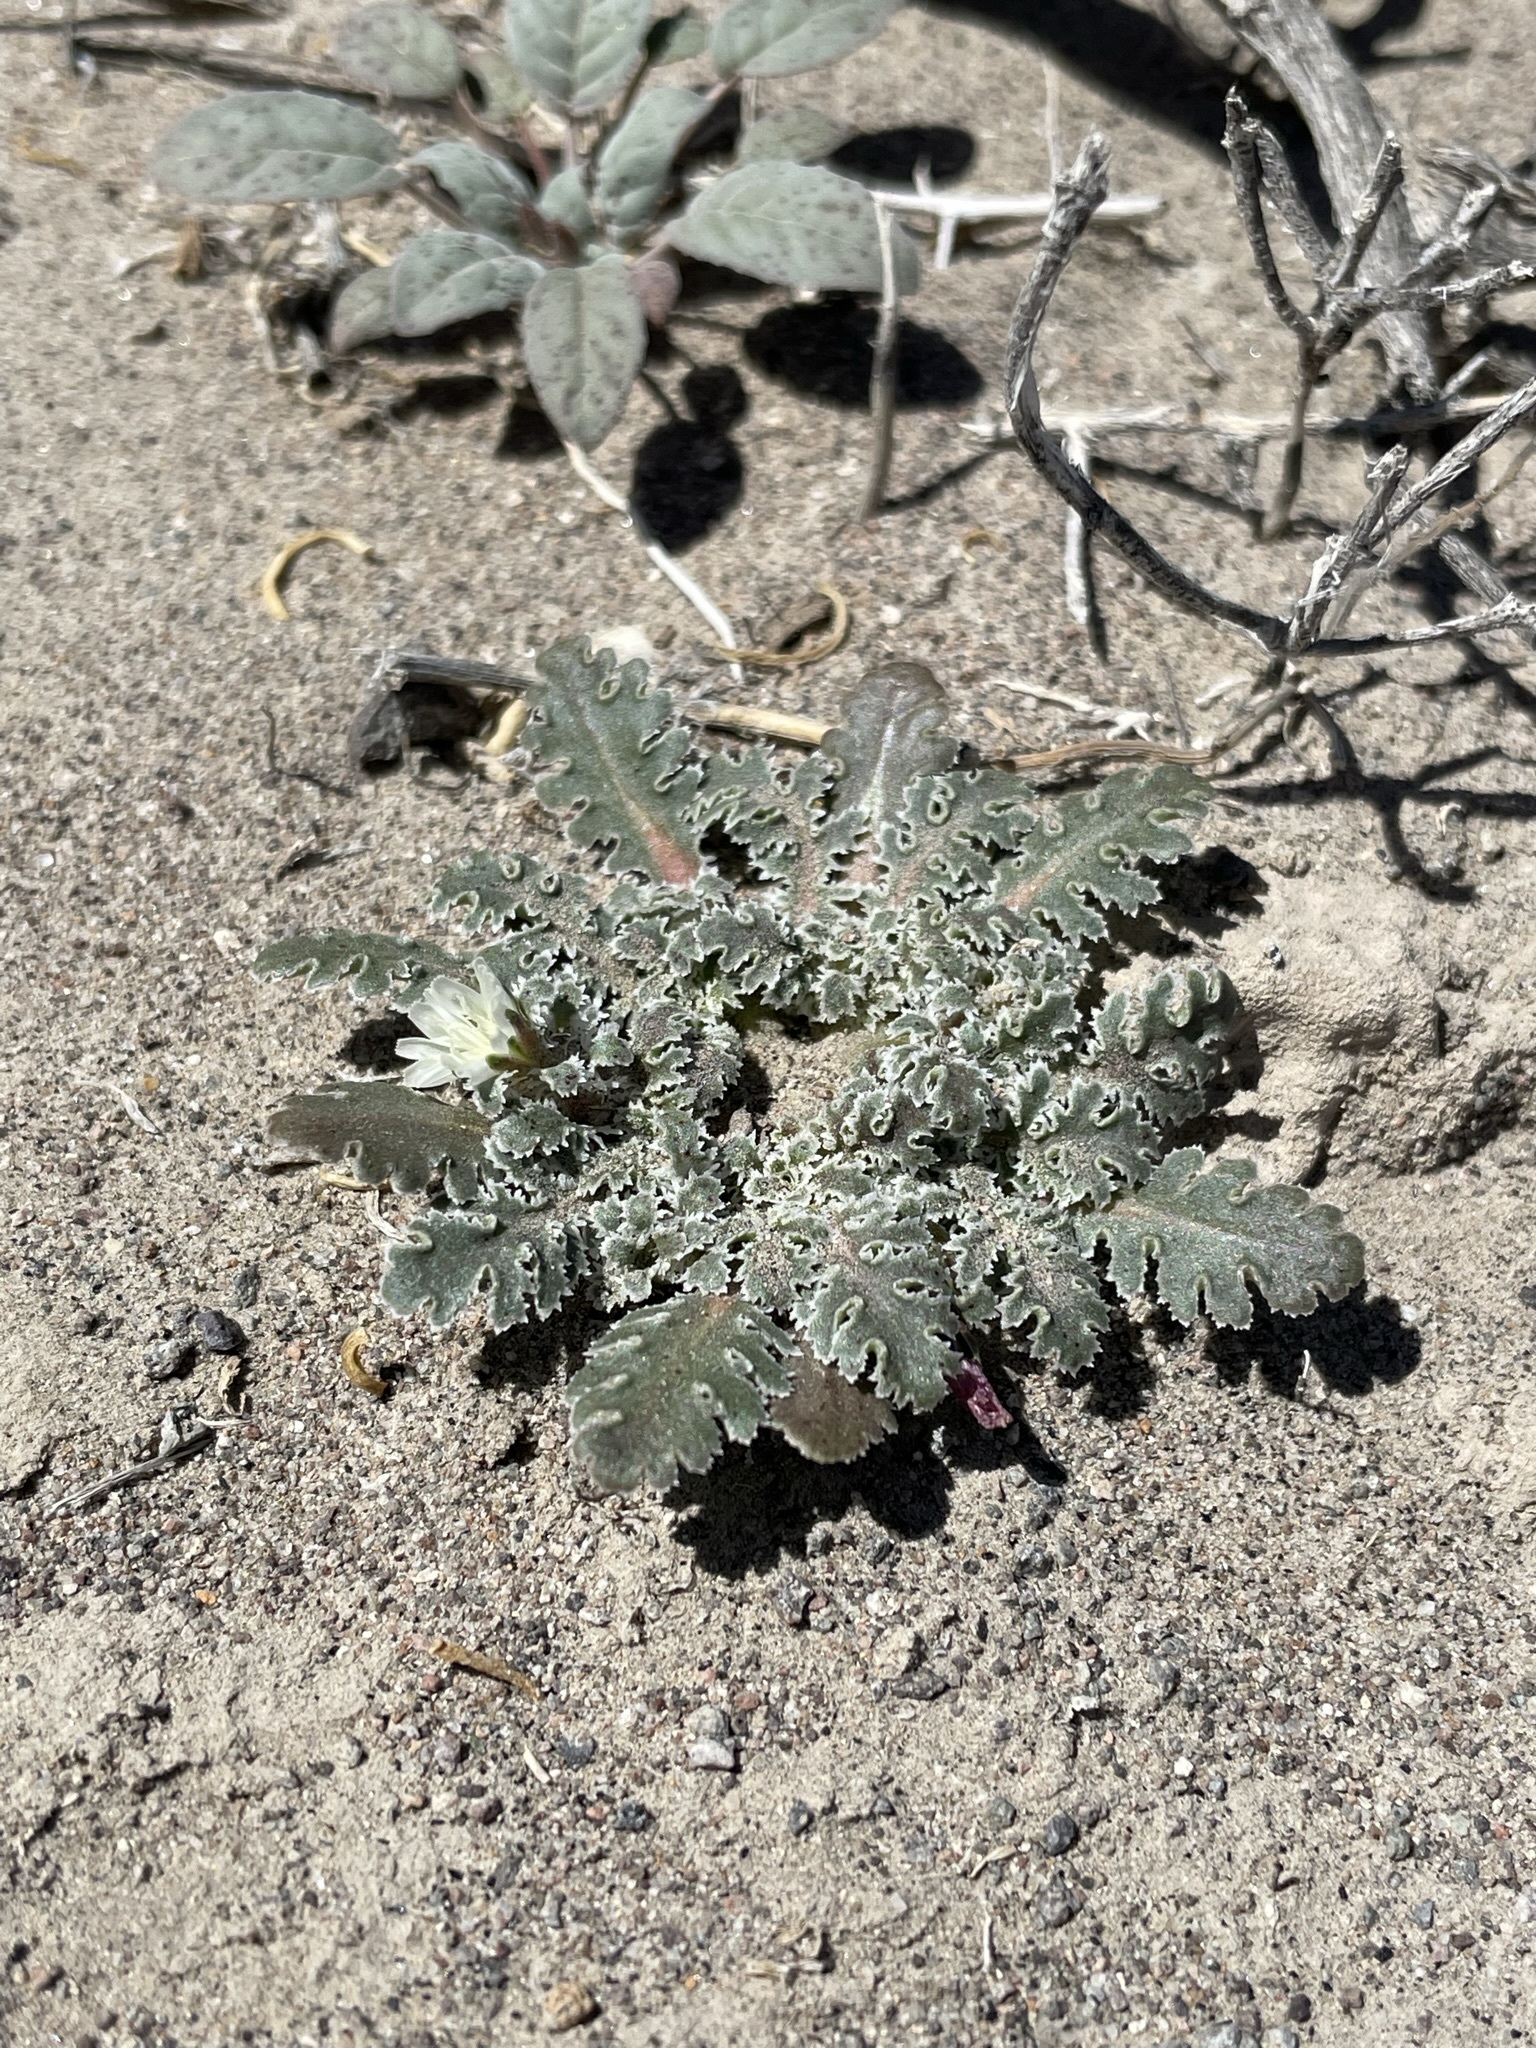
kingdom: Plantae
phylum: Tracheophyta
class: Magnoliopsida
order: Asterales
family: Asteraceae
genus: Glyptopleura
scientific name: Glyptopleura marginata
